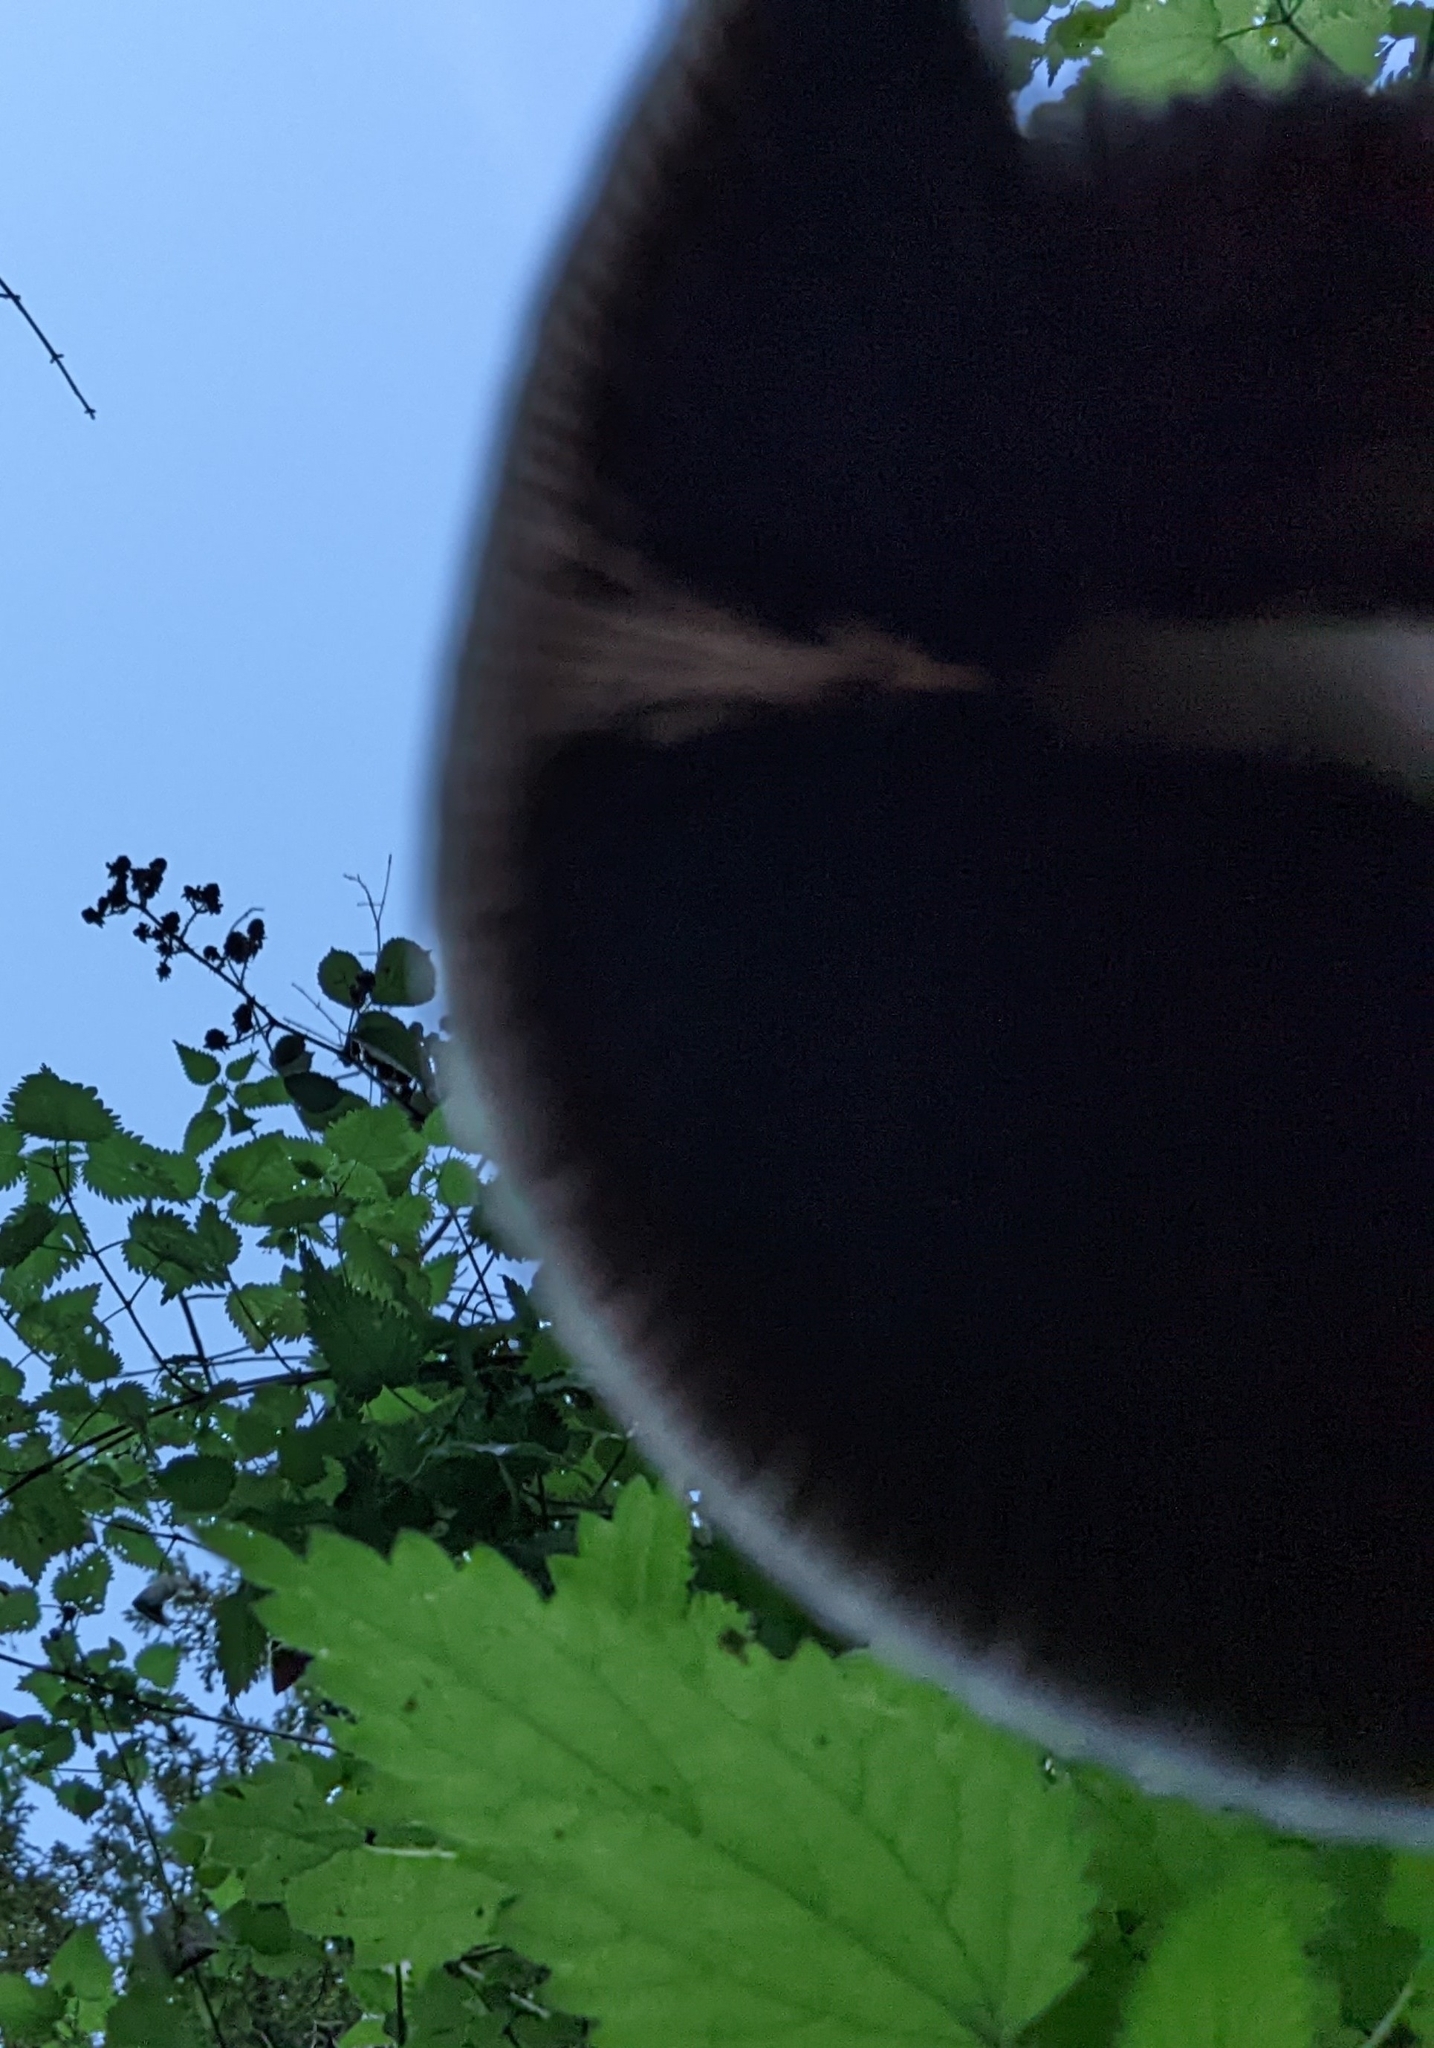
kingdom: Fungi
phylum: Basidiomycota
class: Agaricomycetes
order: Agaricales
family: Psathyrellaceae
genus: Parasola
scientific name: Parasola conopilea
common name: Conical brittlestem
